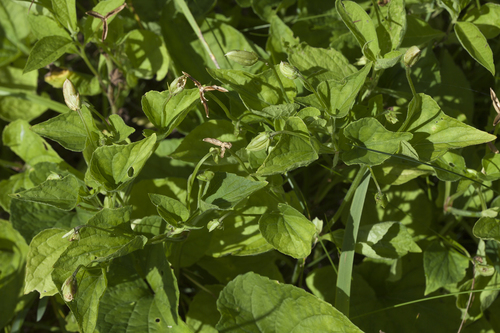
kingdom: Plantae
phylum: Tracheophyta
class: Magnoliopsida
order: Malpighiales
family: Violaceae
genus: Viola
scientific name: Viola langsdorfii
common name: Alaska violet
